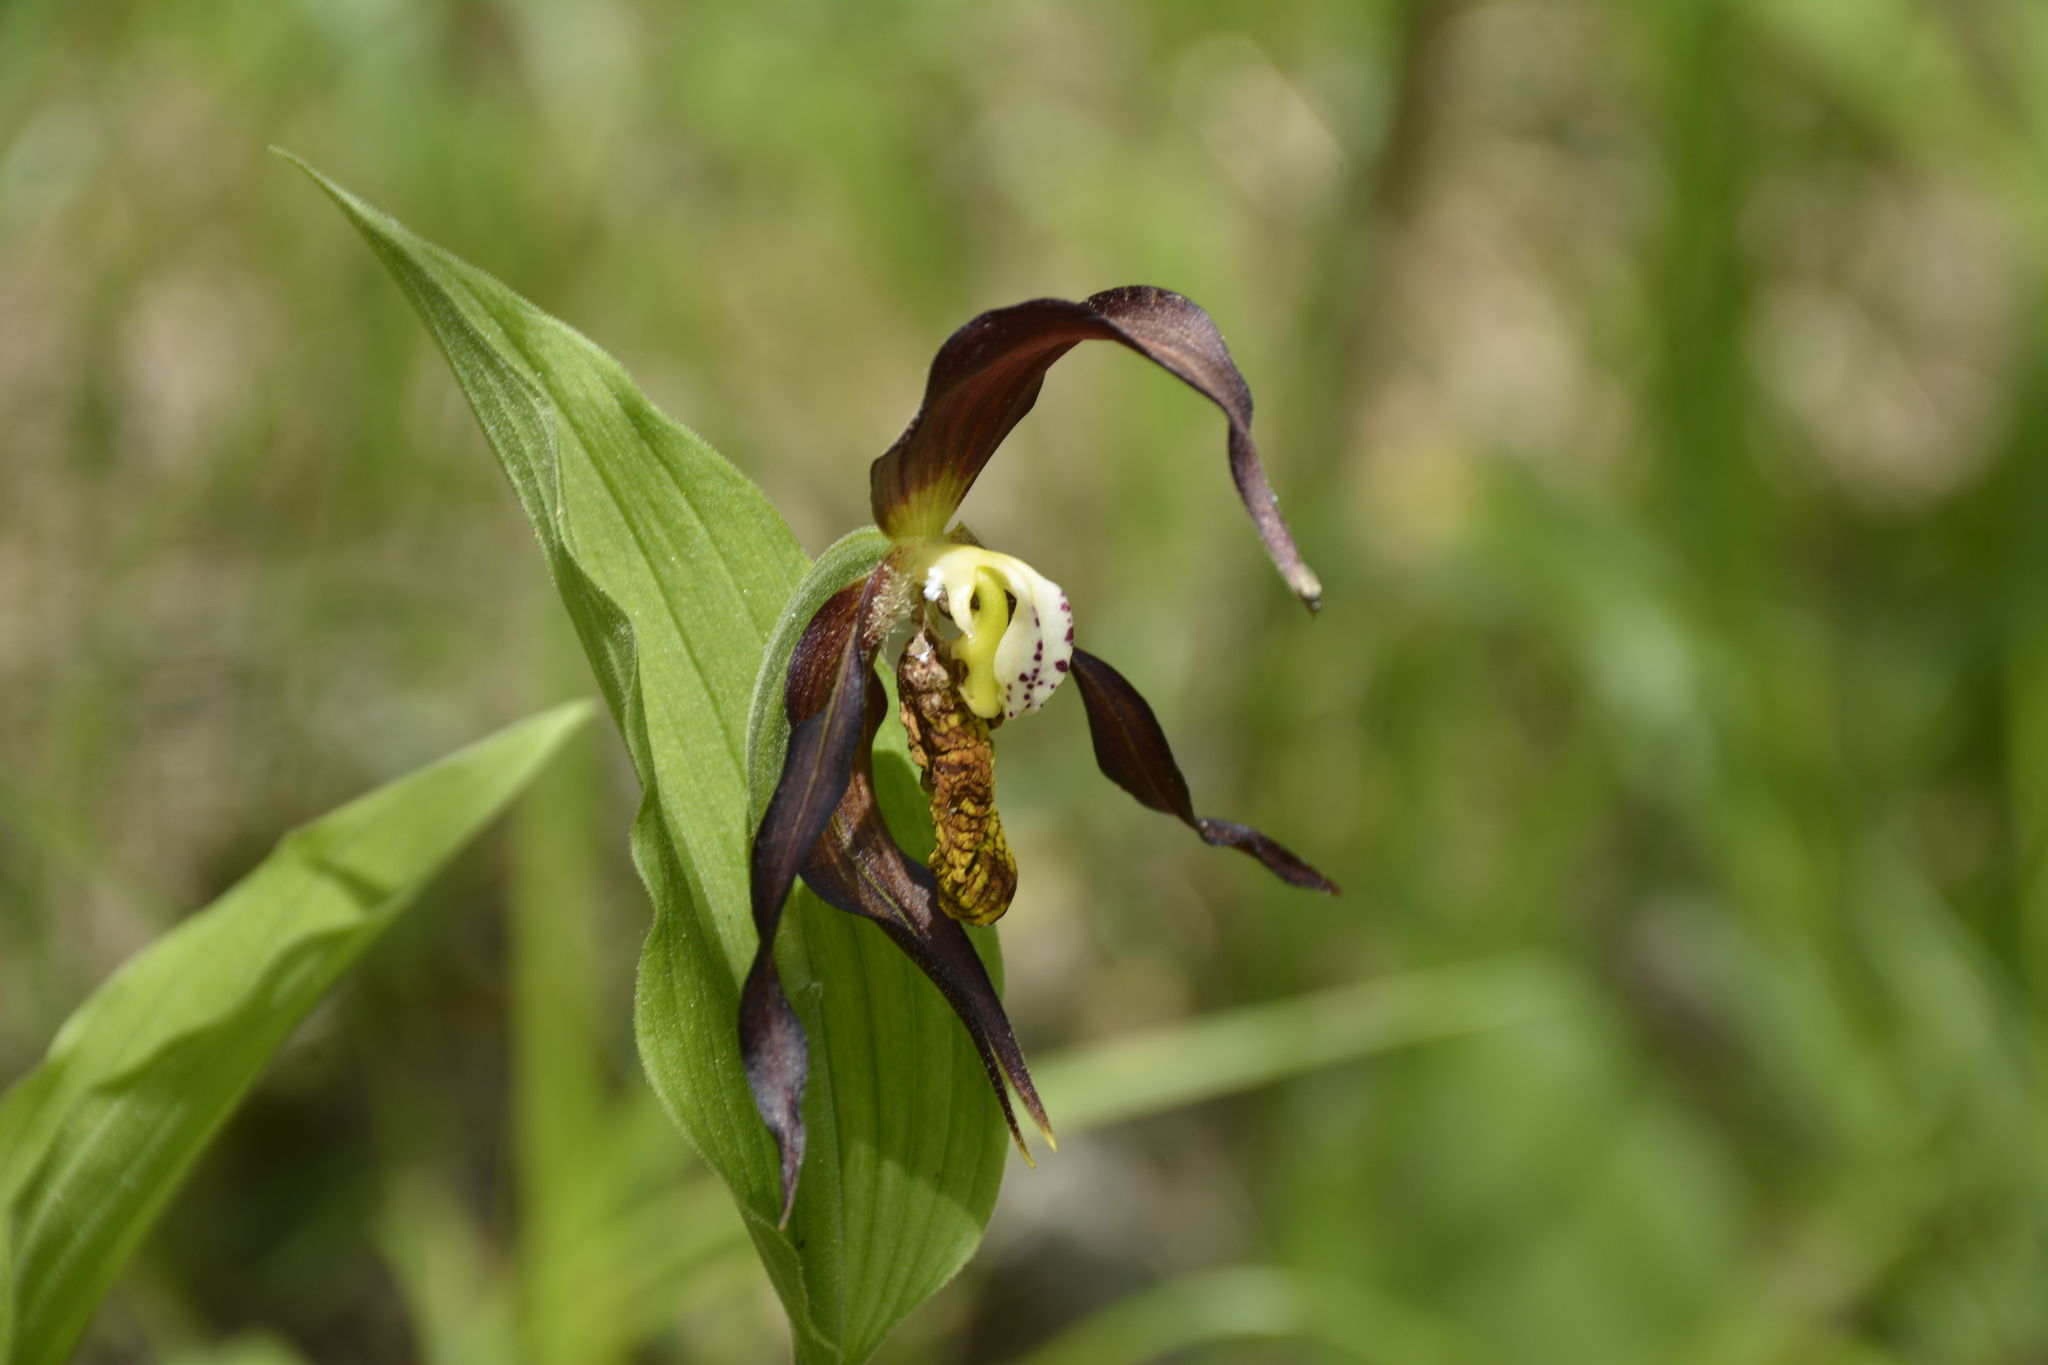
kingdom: Plantae
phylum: Tracheophyta
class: Liliopsida
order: Asparagales
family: Orchidaceae
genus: Cypripedium
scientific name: Cypripedium calceolus
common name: Lady's-slipper
